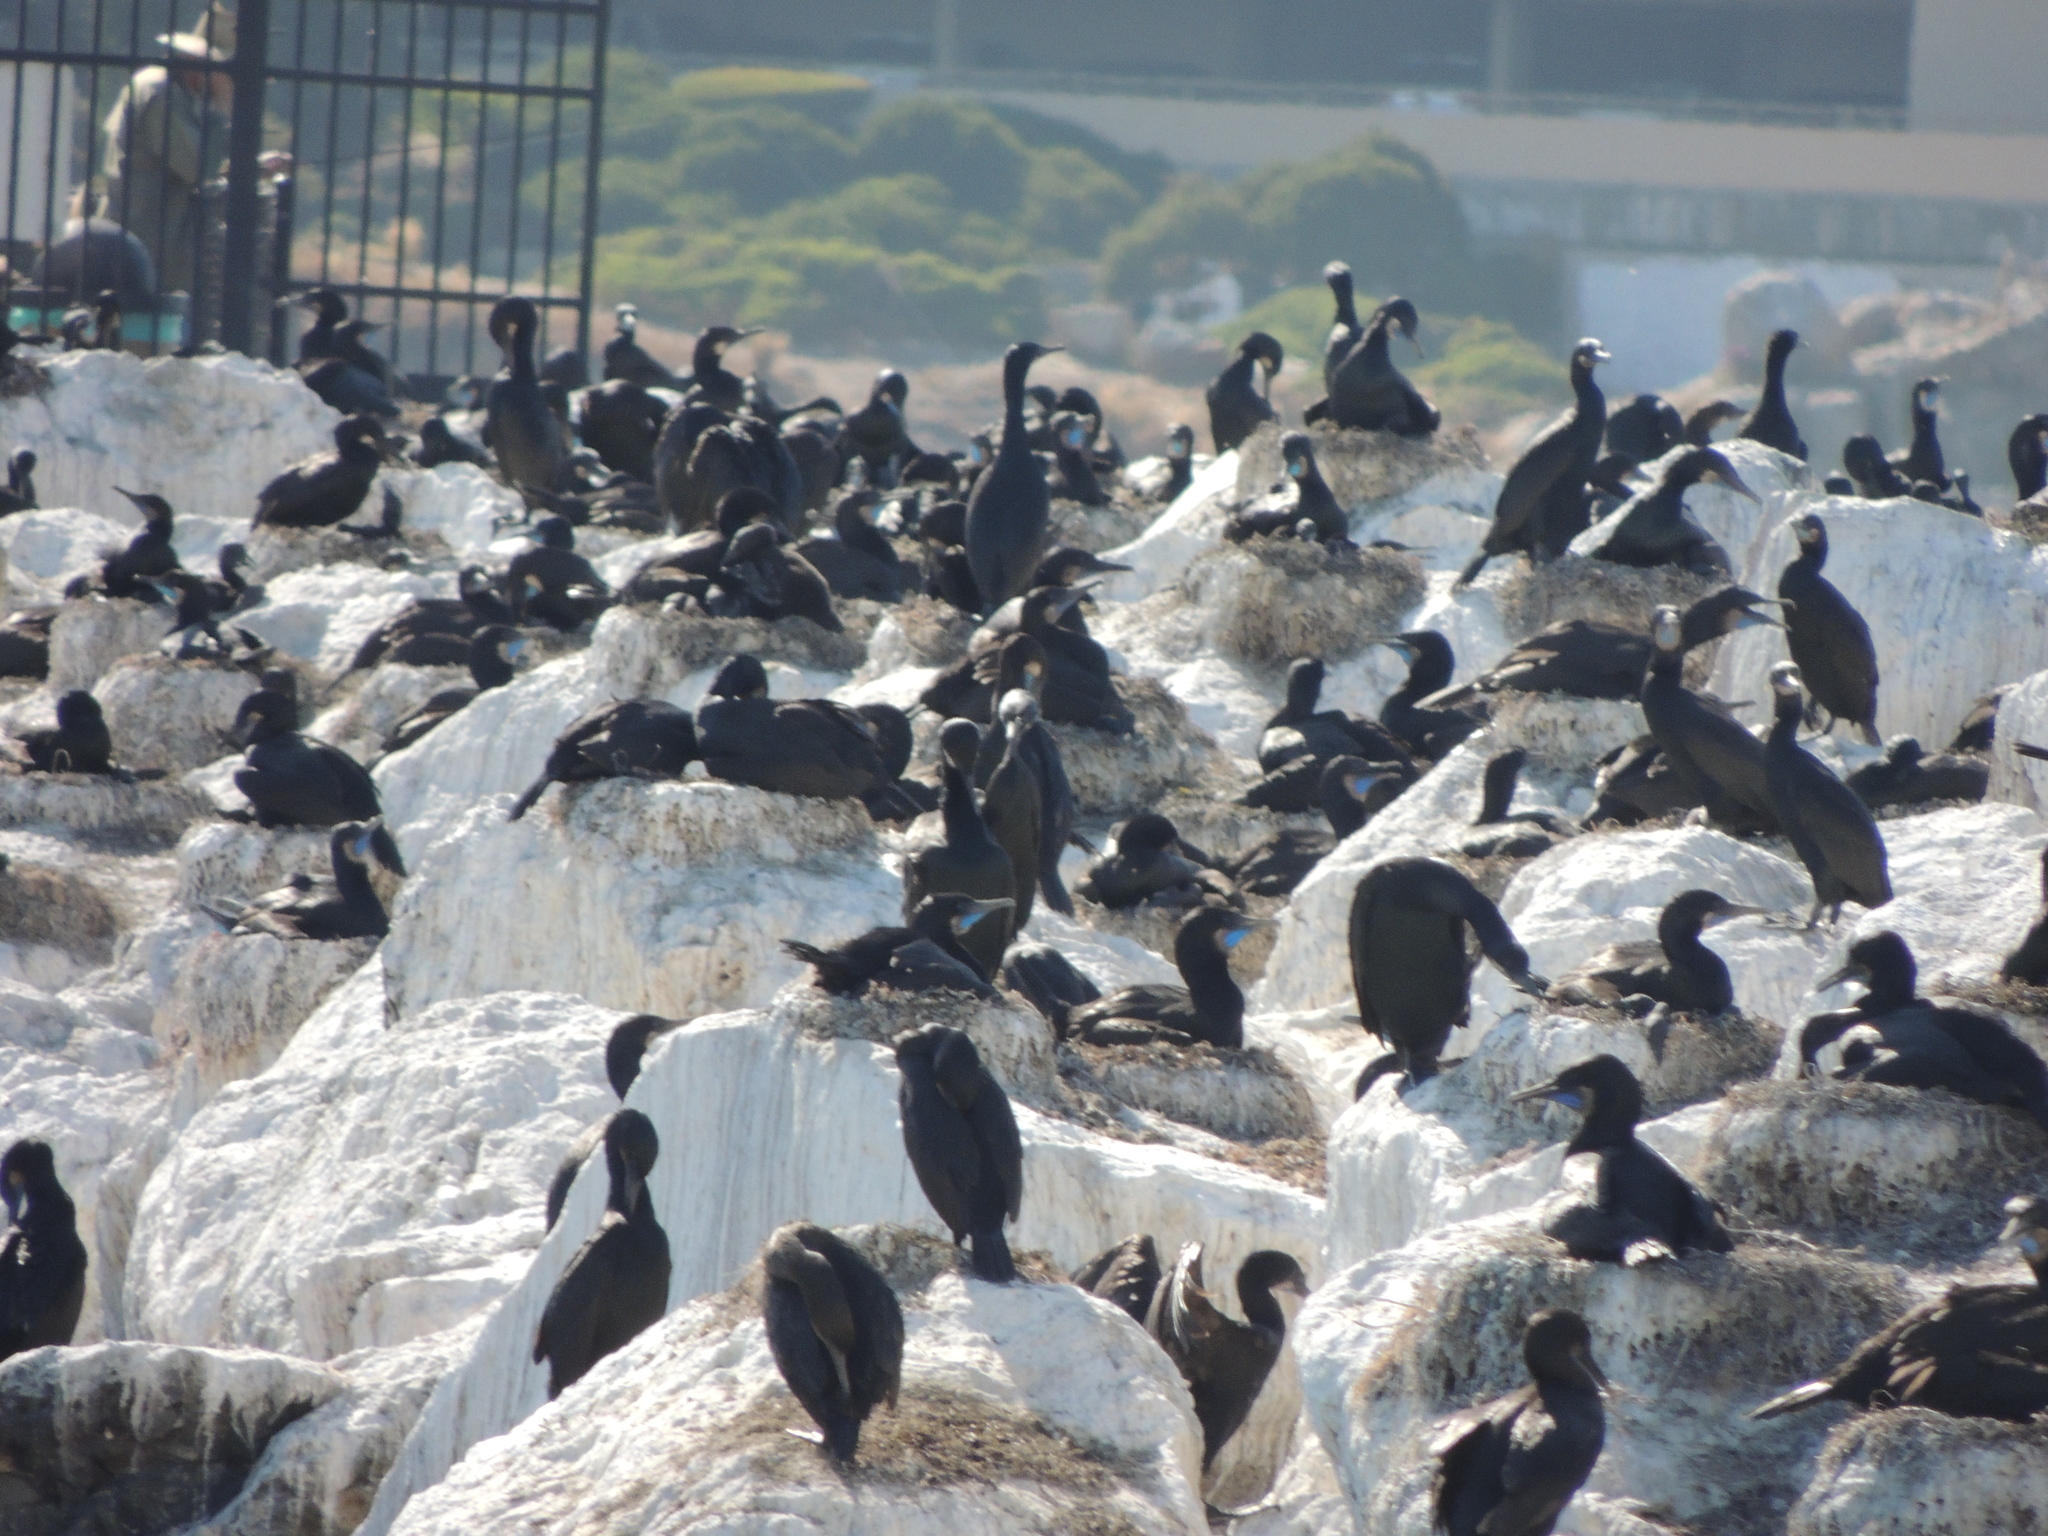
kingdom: Animalia
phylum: Chordata
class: Aves
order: Suliformes
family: Phalacrocoracidae
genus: Urile
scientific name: Urile penicillatus
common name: Brandt's cormorant
